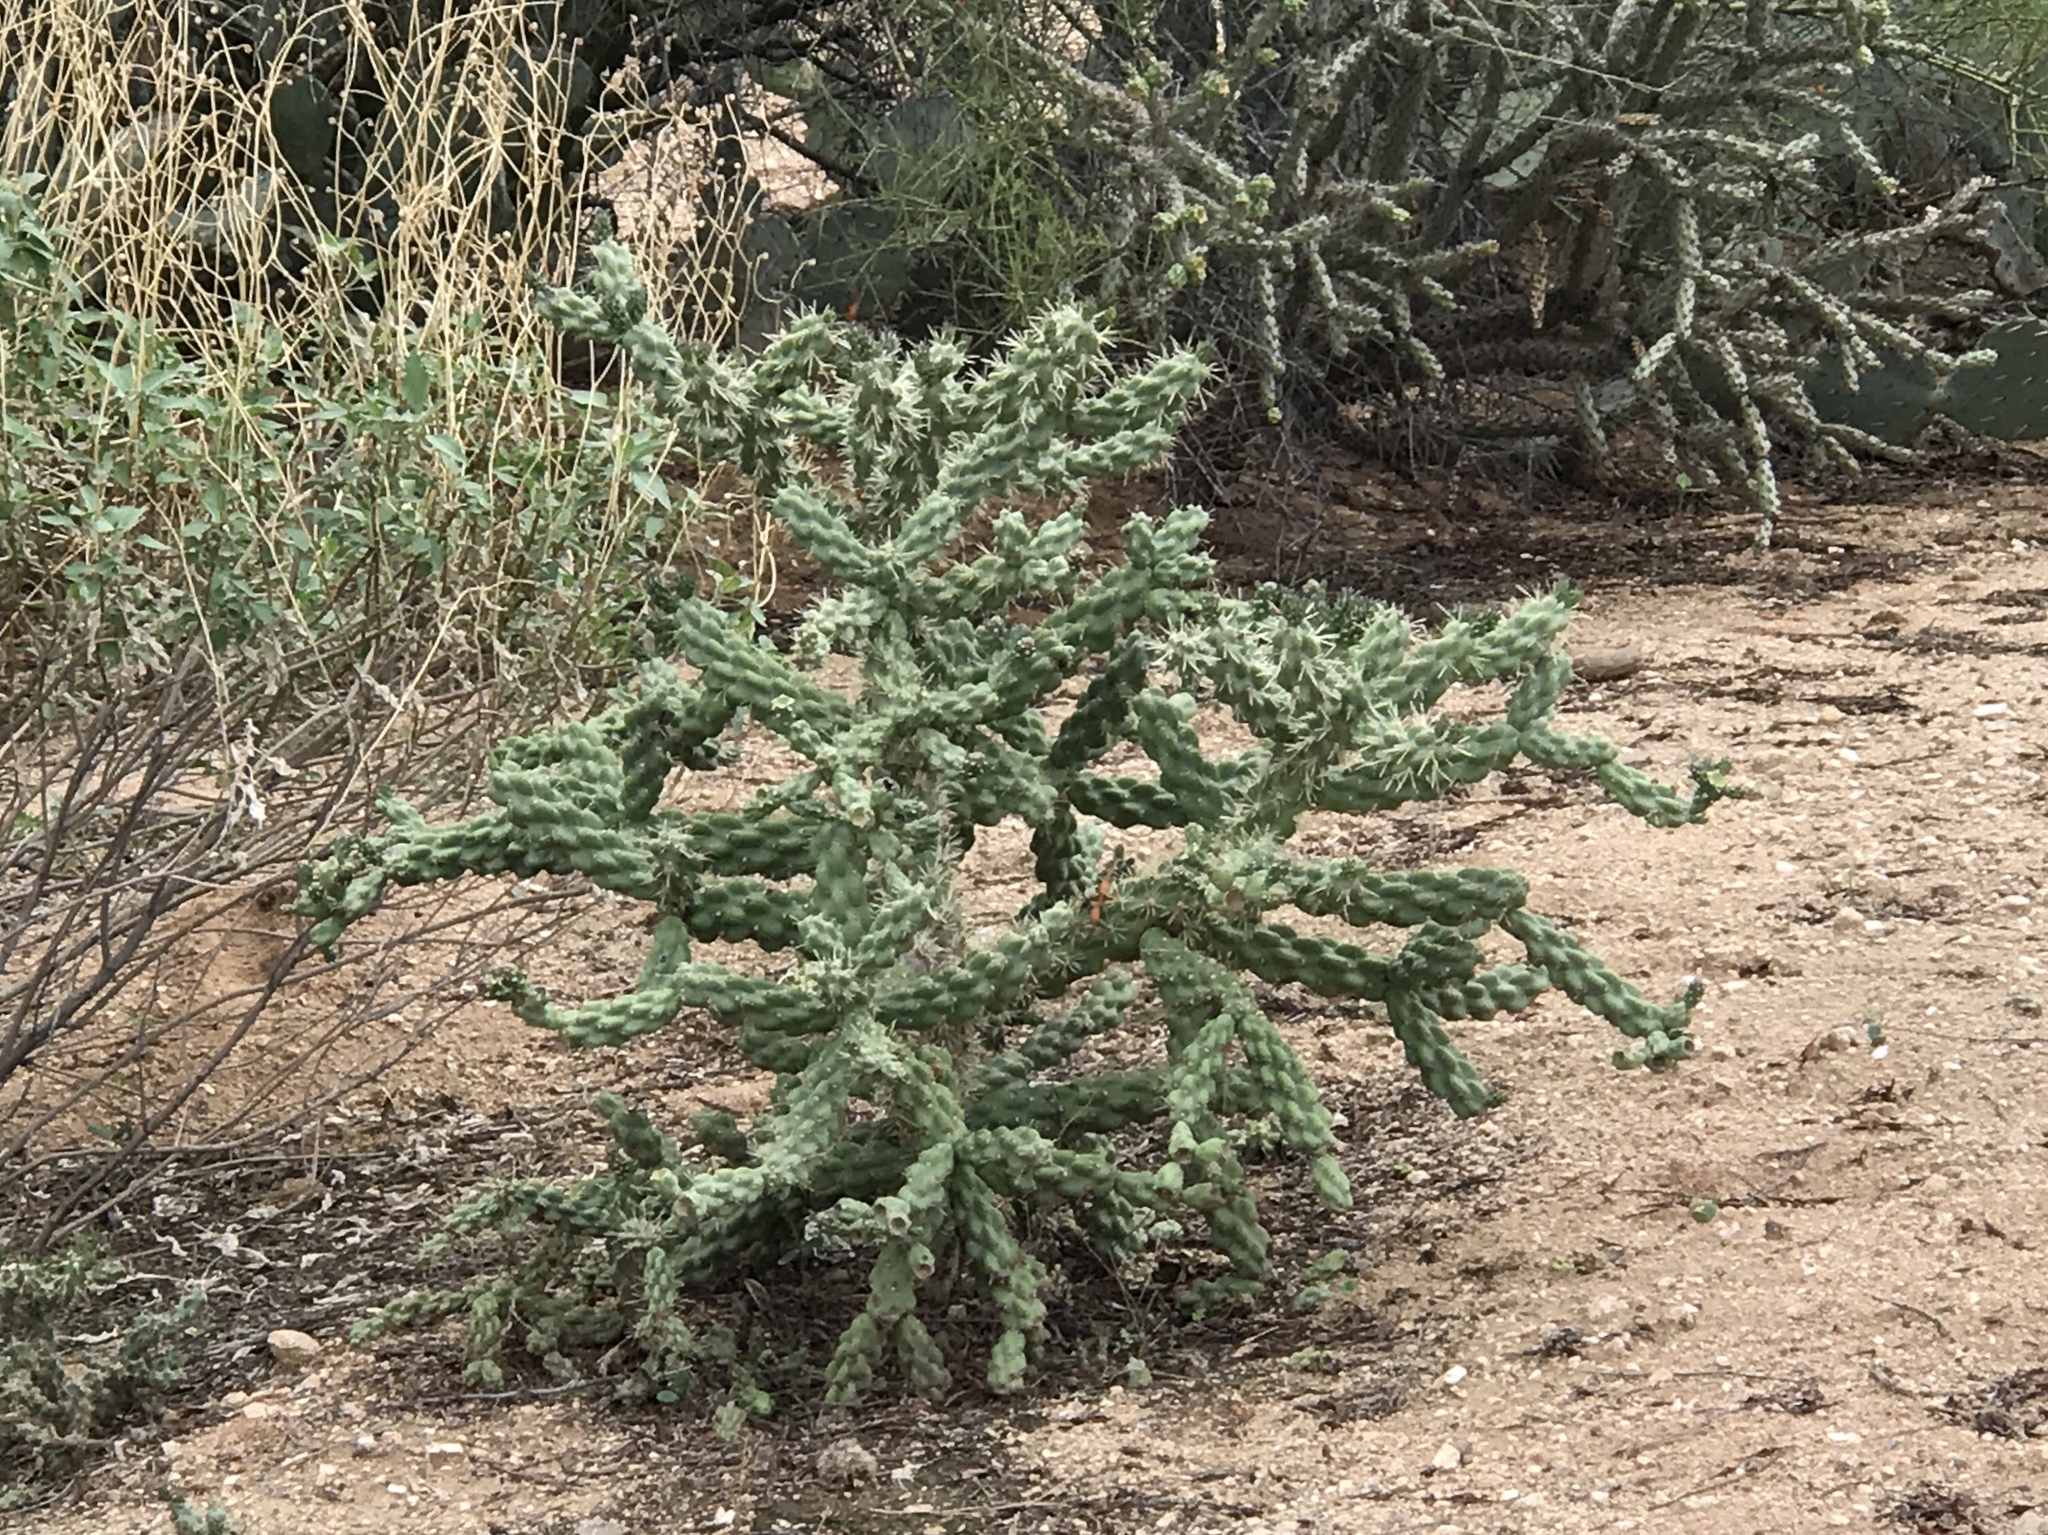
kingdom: Plantae
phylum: Tracheophyta
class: Magnoliopsida
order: Caryophyllales
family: Cactaceae
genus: Cylindropuntia
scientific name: Cylindropuntia fulgida
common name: Jumping cholla
